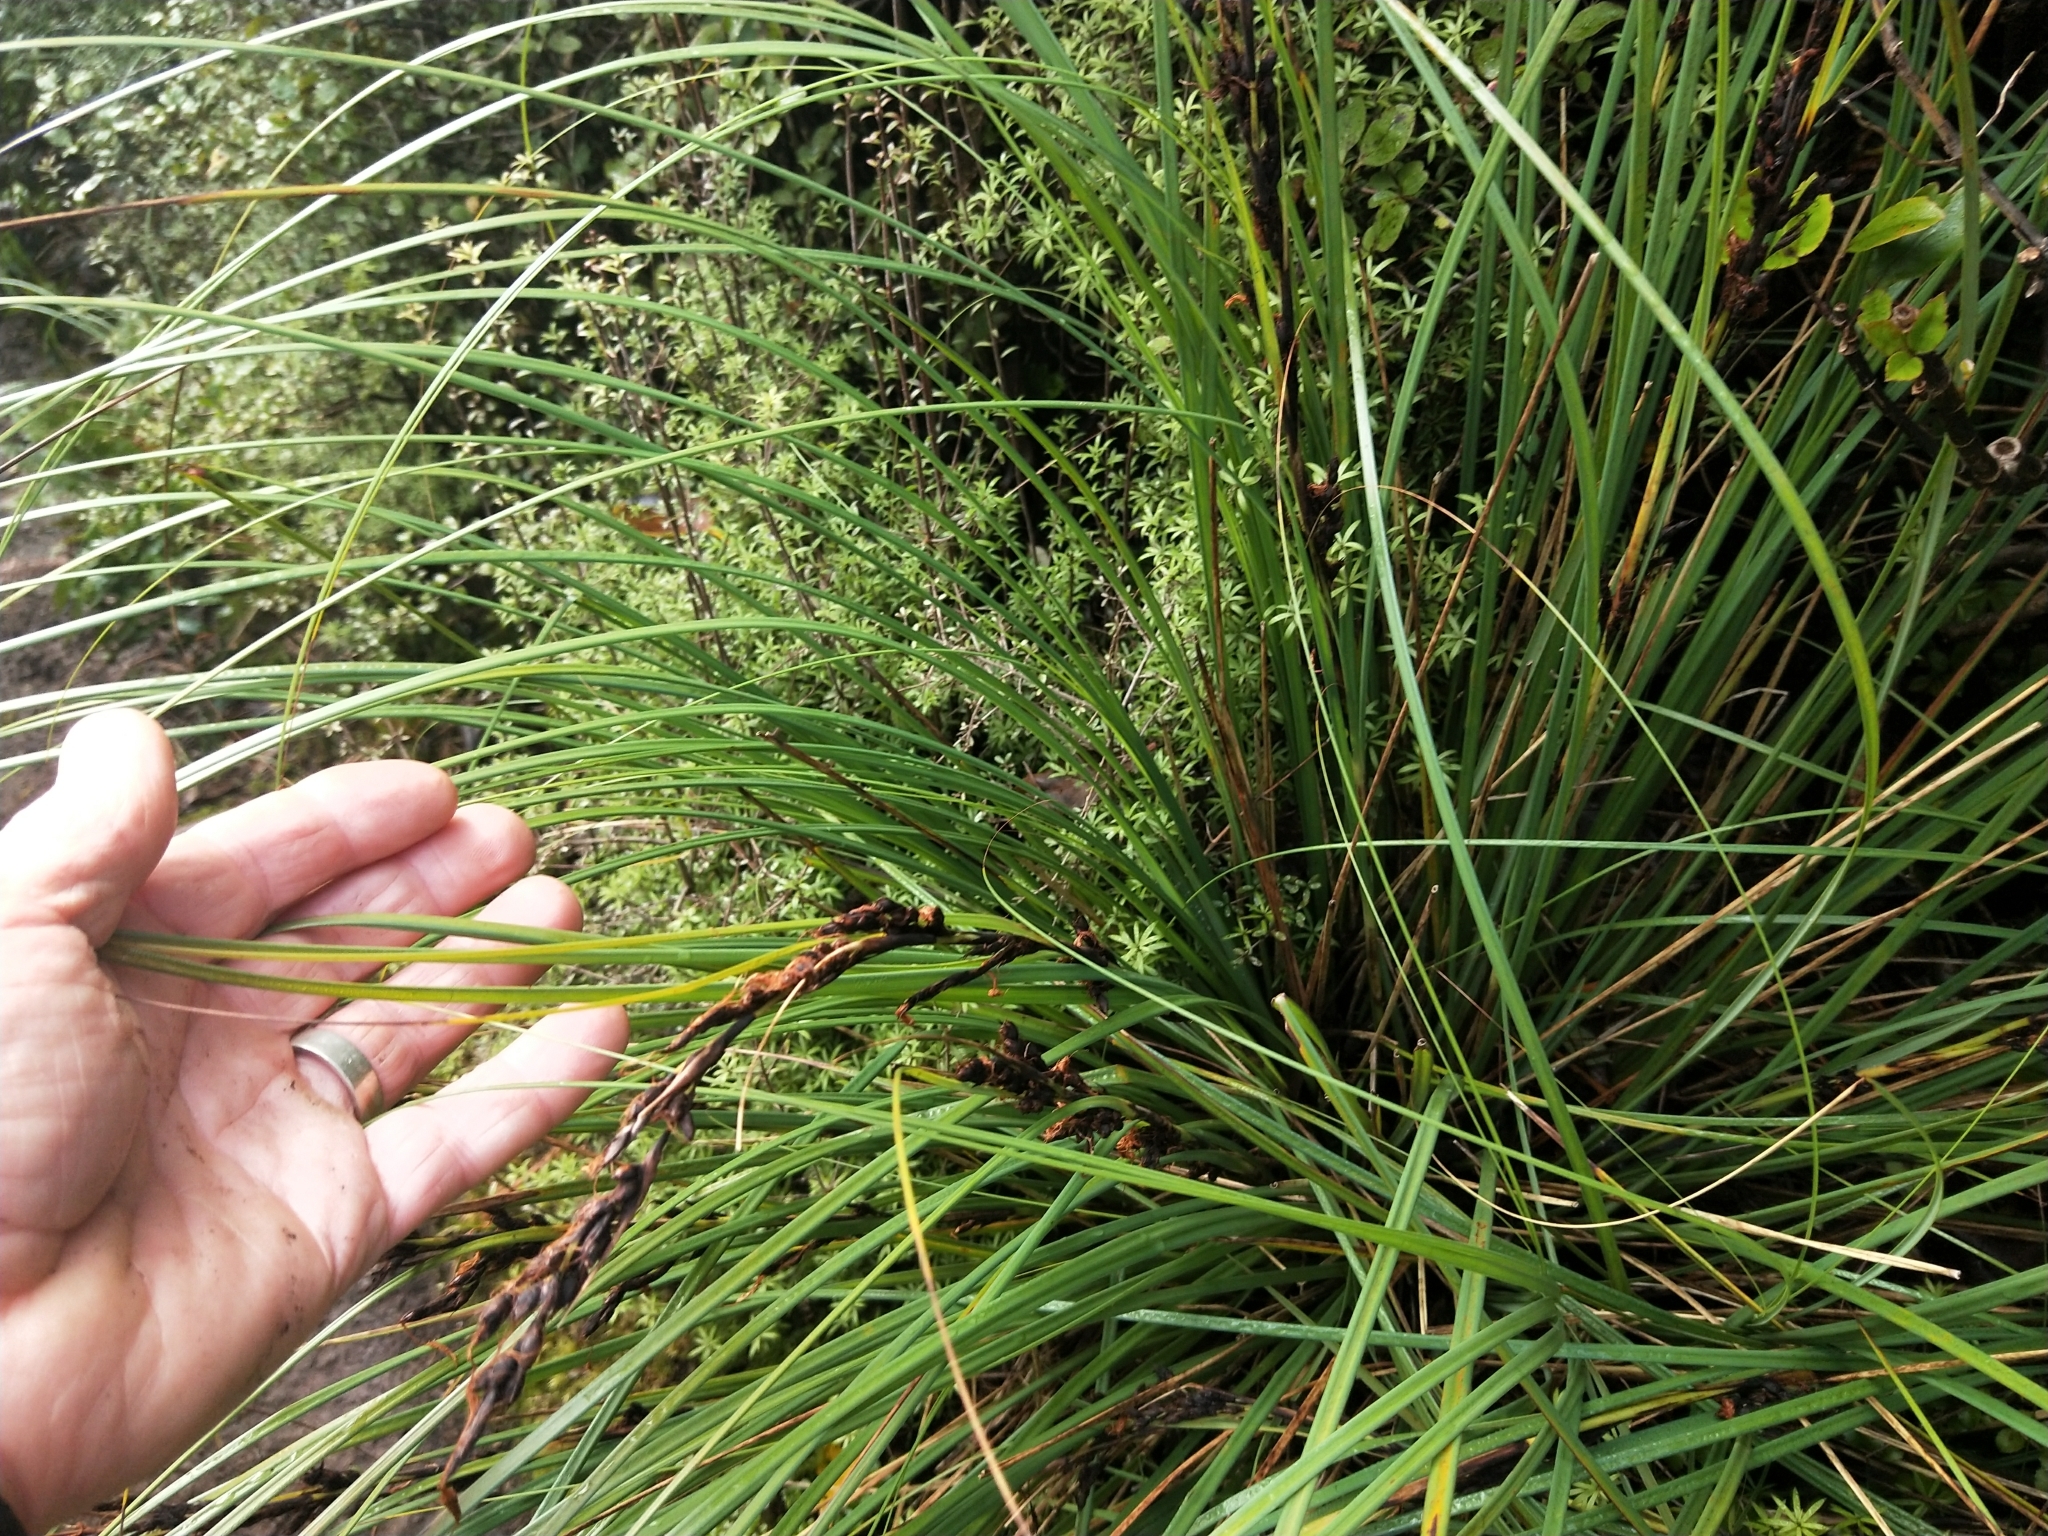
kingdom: Plantae
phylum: Tracheophyta
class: Liliopsida
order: Poales
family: Cyperaceae
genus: Gahnia
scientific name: Gahnia procera
